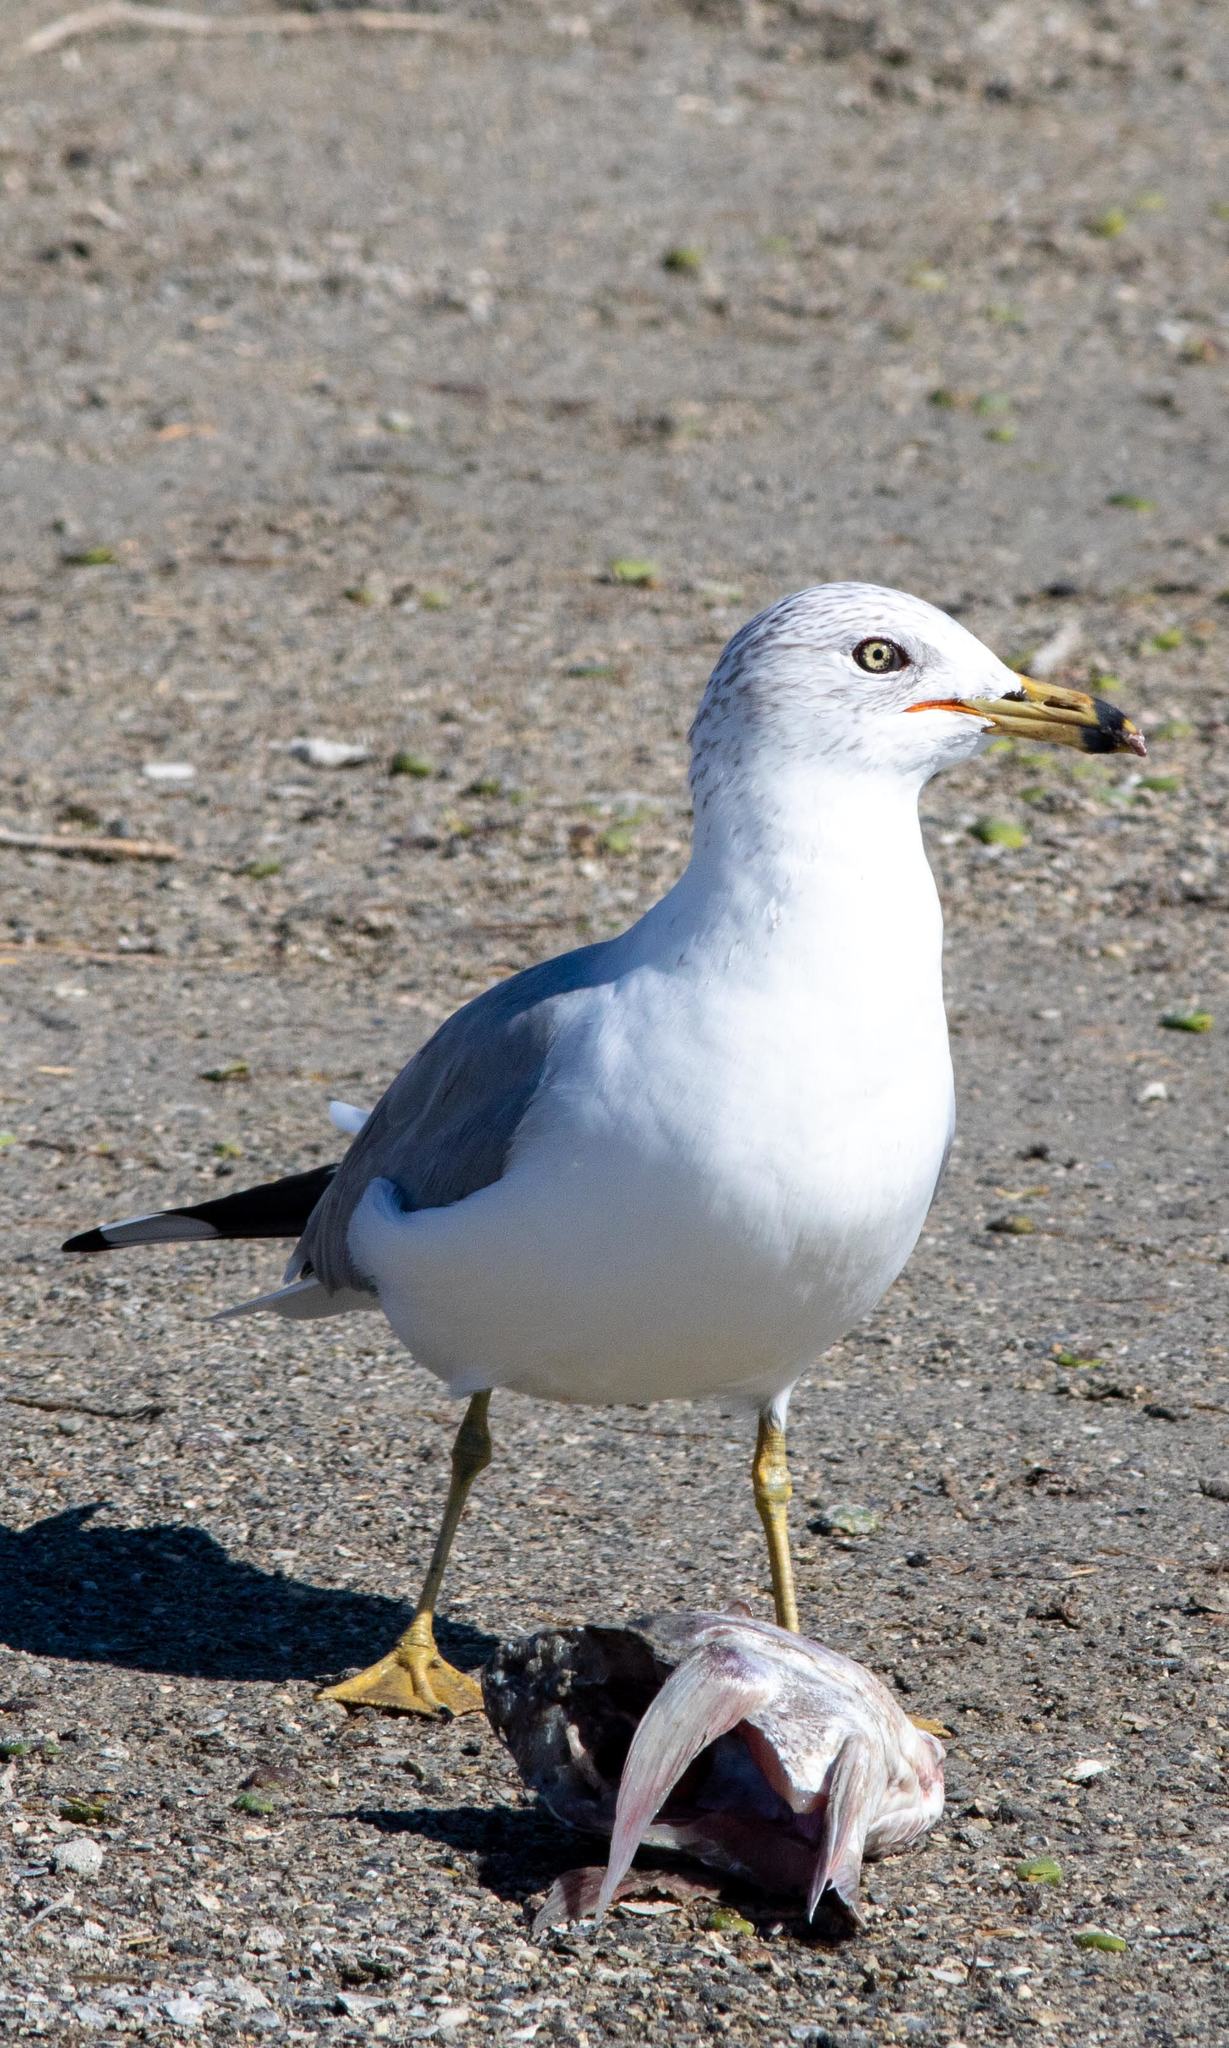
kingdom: Animalia
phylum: Chordata
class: Aves
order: Charadriiformes
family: Laridae
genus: Larus
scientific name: Larus delawarensis
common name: Ring-billed gull
